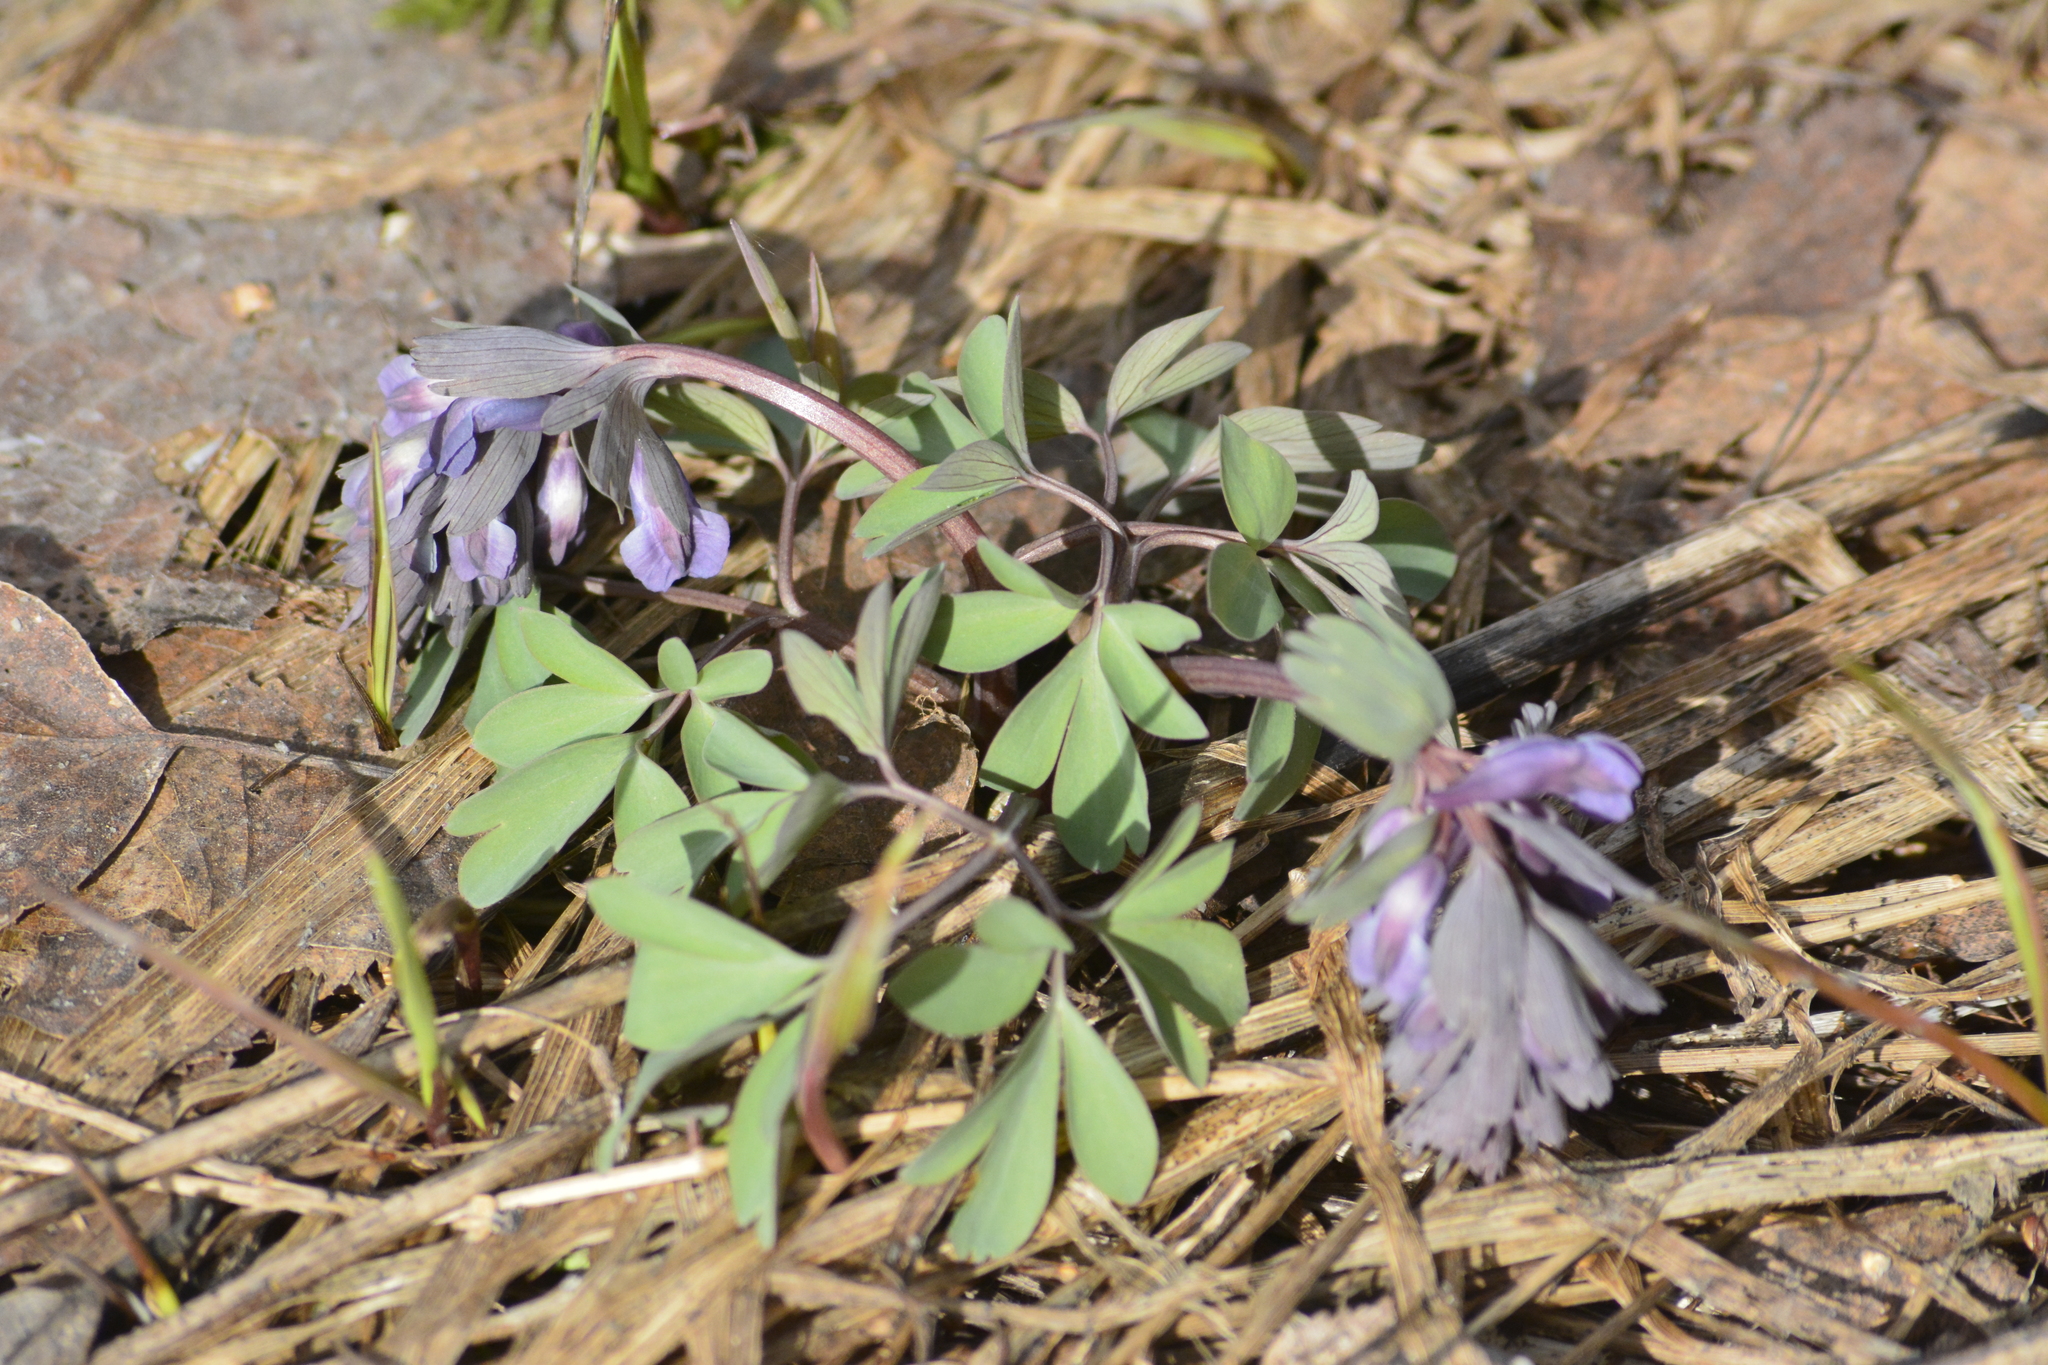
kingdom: Plantae
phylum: Tracheophyta
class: Magnoliopsida
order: Ranunculales
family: Papaveraceae
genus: Corydalis
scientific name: Corydalis solida
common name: Bird-in-a-bush
